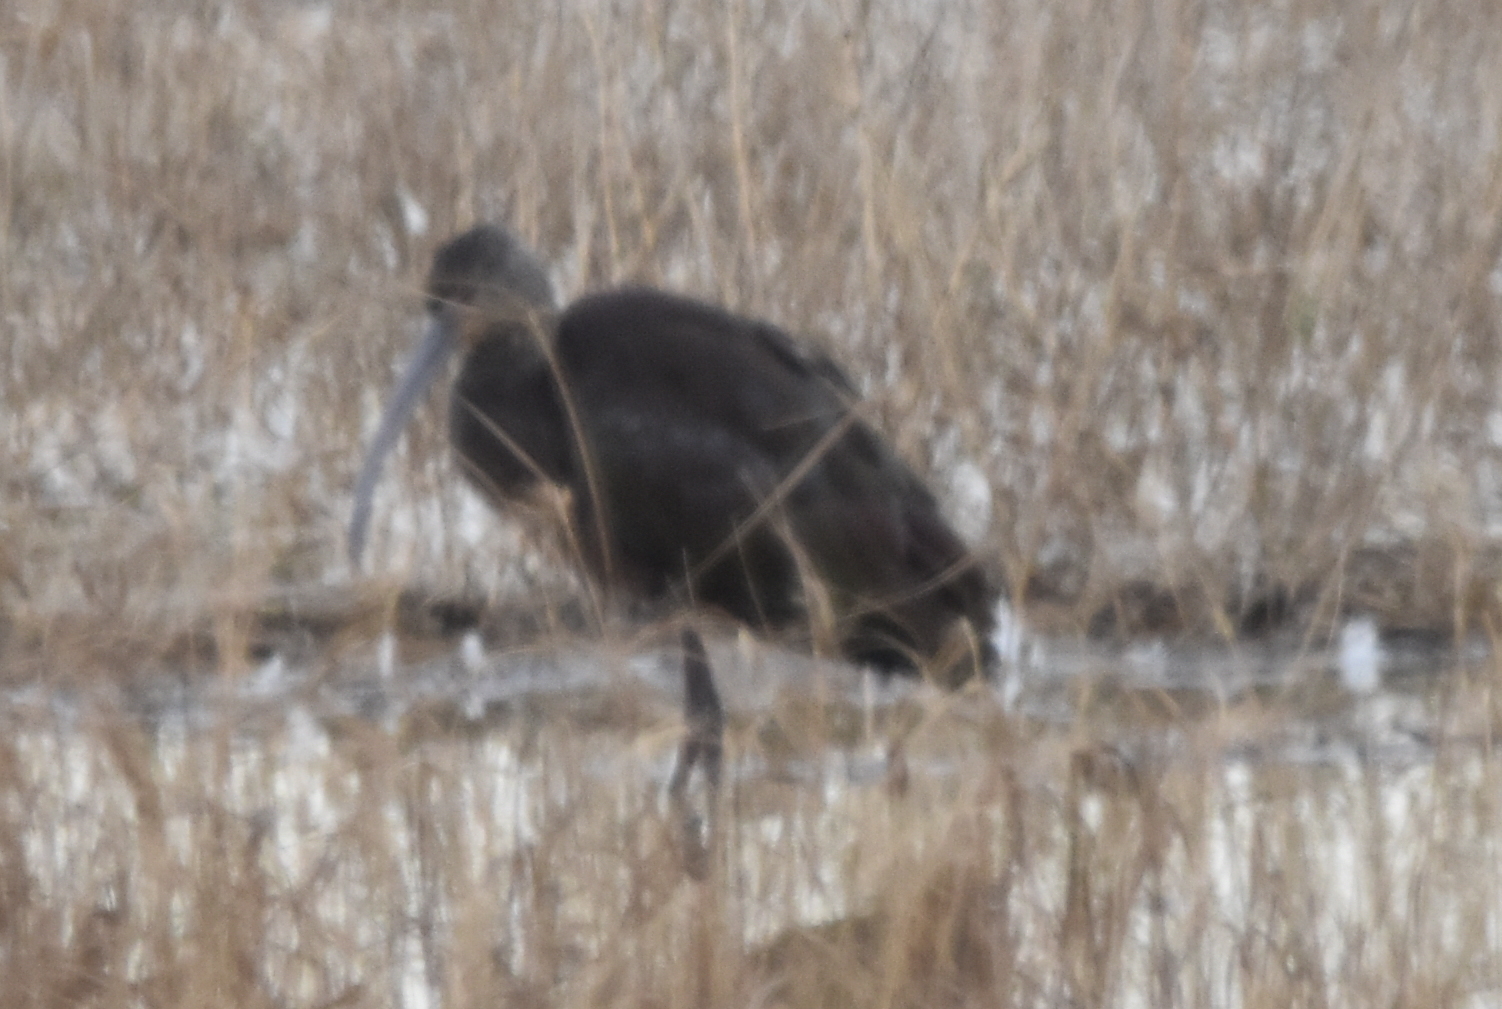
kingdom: Animalia
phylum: Chordata
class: Aves
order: Pelecaniformes
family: Threskiornithidae
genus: Plegadis
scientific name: Plegadis chihi
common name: White-faced ibis
